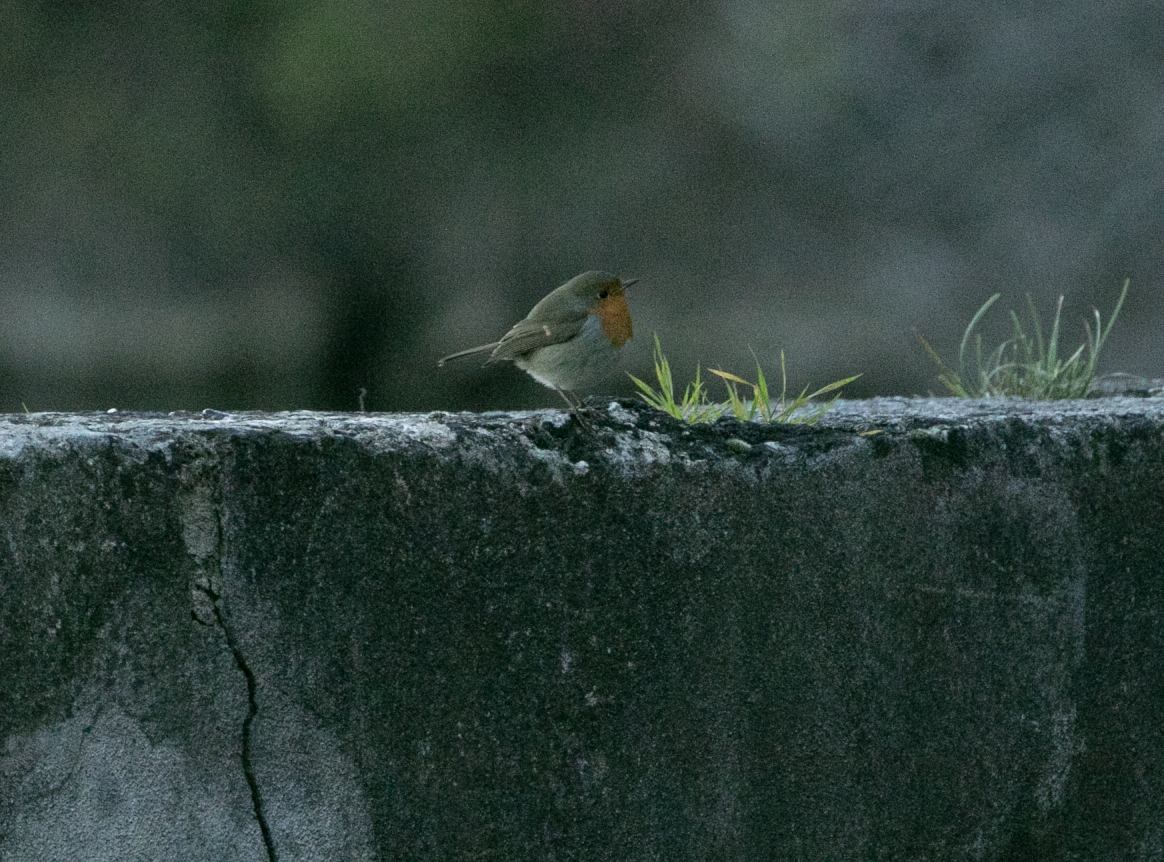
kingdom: Animalia
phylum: Chordata
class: Aves
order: Passeriformes
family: Muscicapidae
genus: Erithacus
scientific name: Erithacus rubecula
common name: European robin
